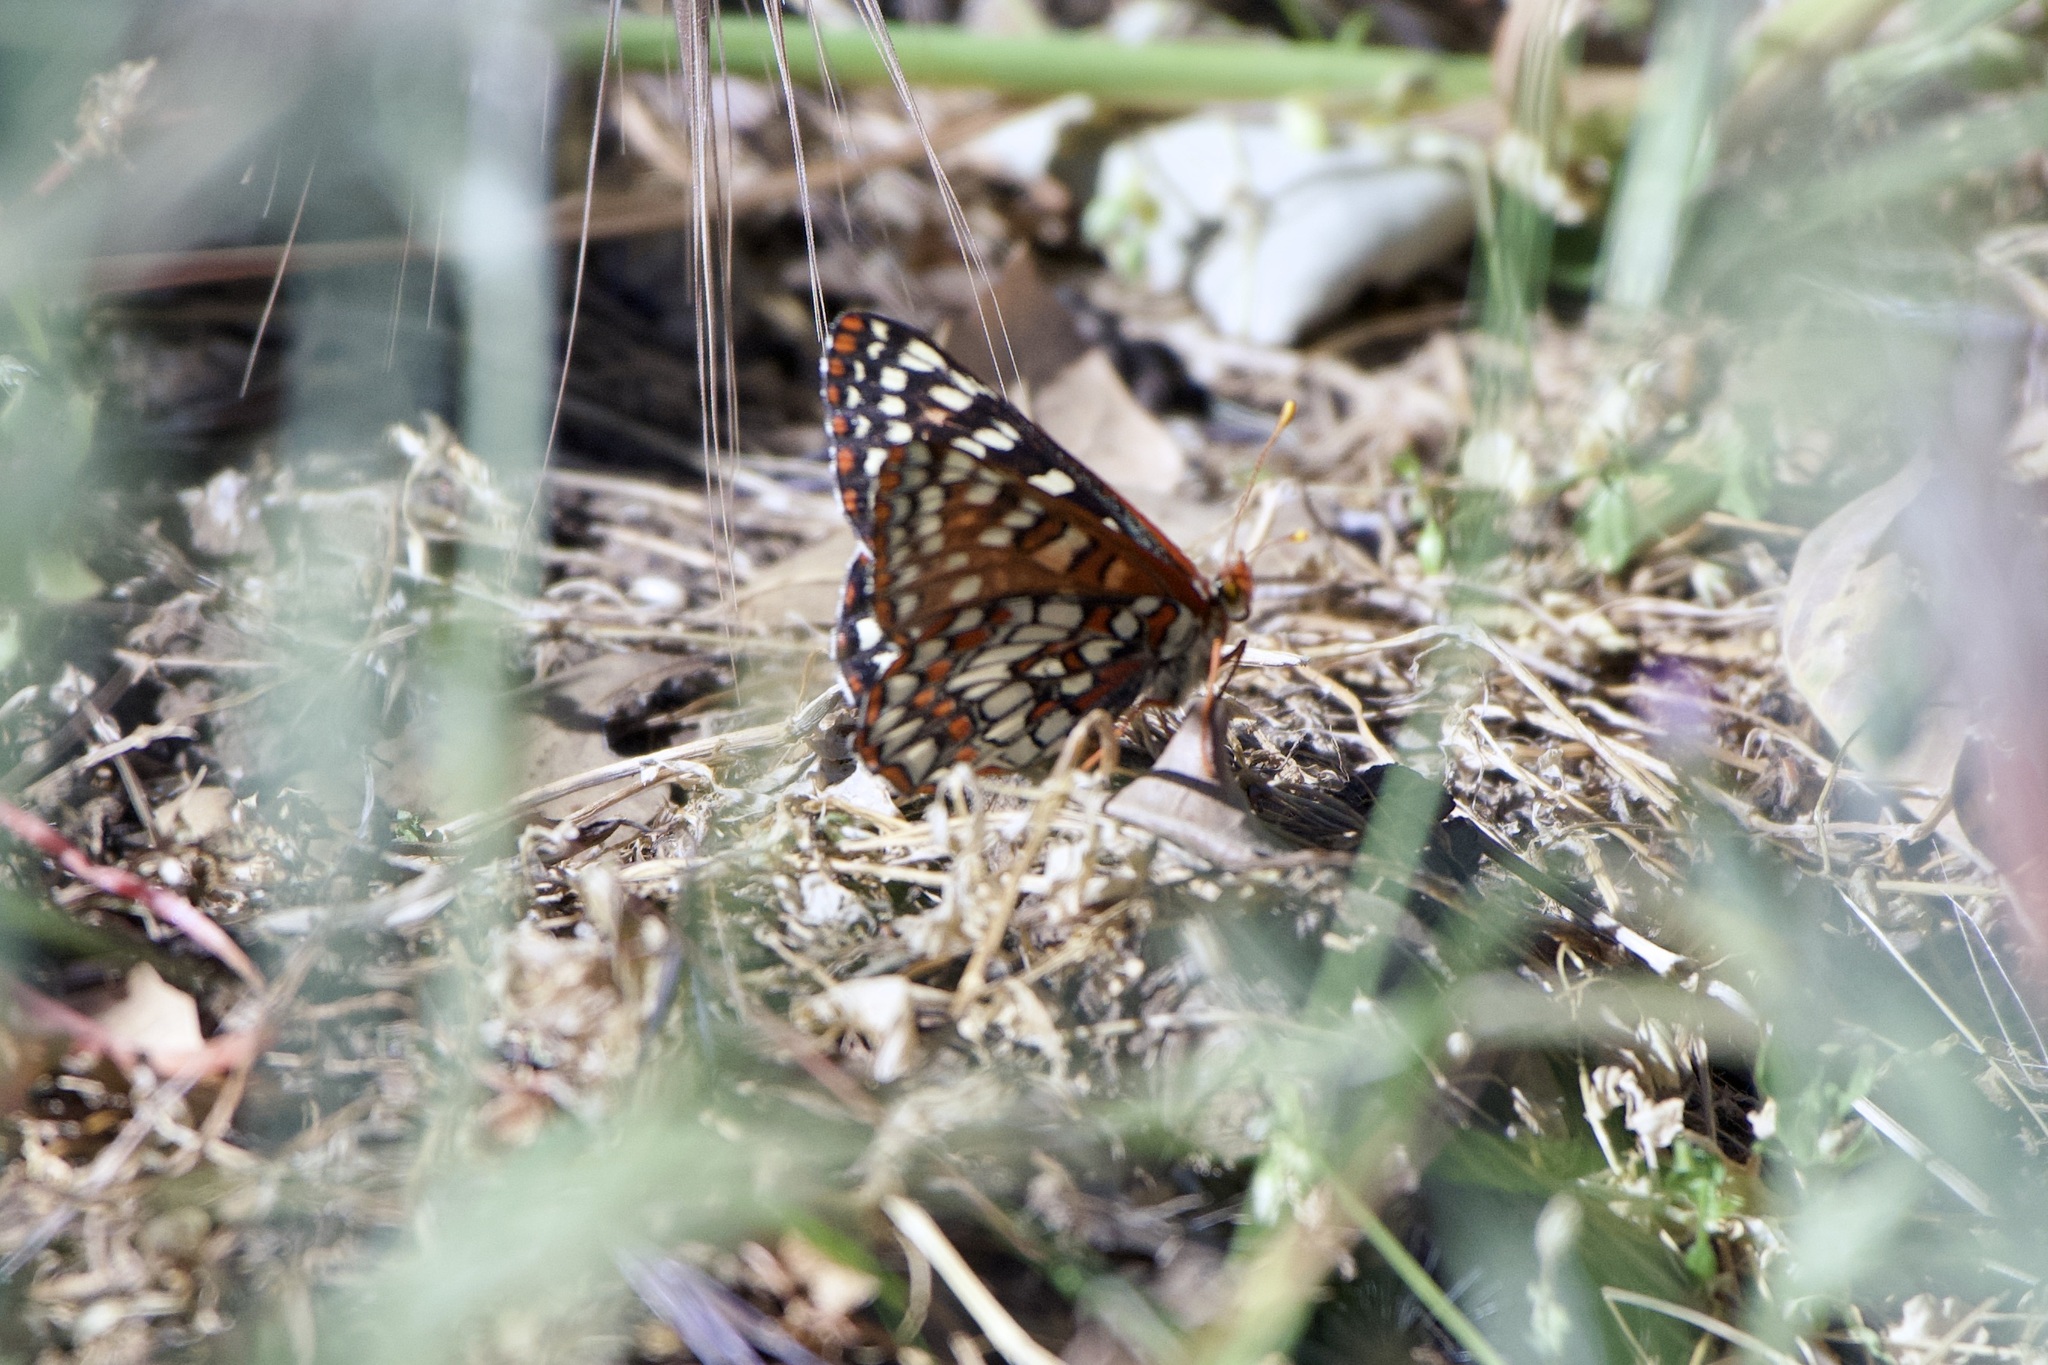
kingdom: Animalia
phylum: Arthropoda
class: Insecta
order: Lepidoptera
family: Nymphalidae
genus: Occidryas
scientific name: Occidryas chalcedona
